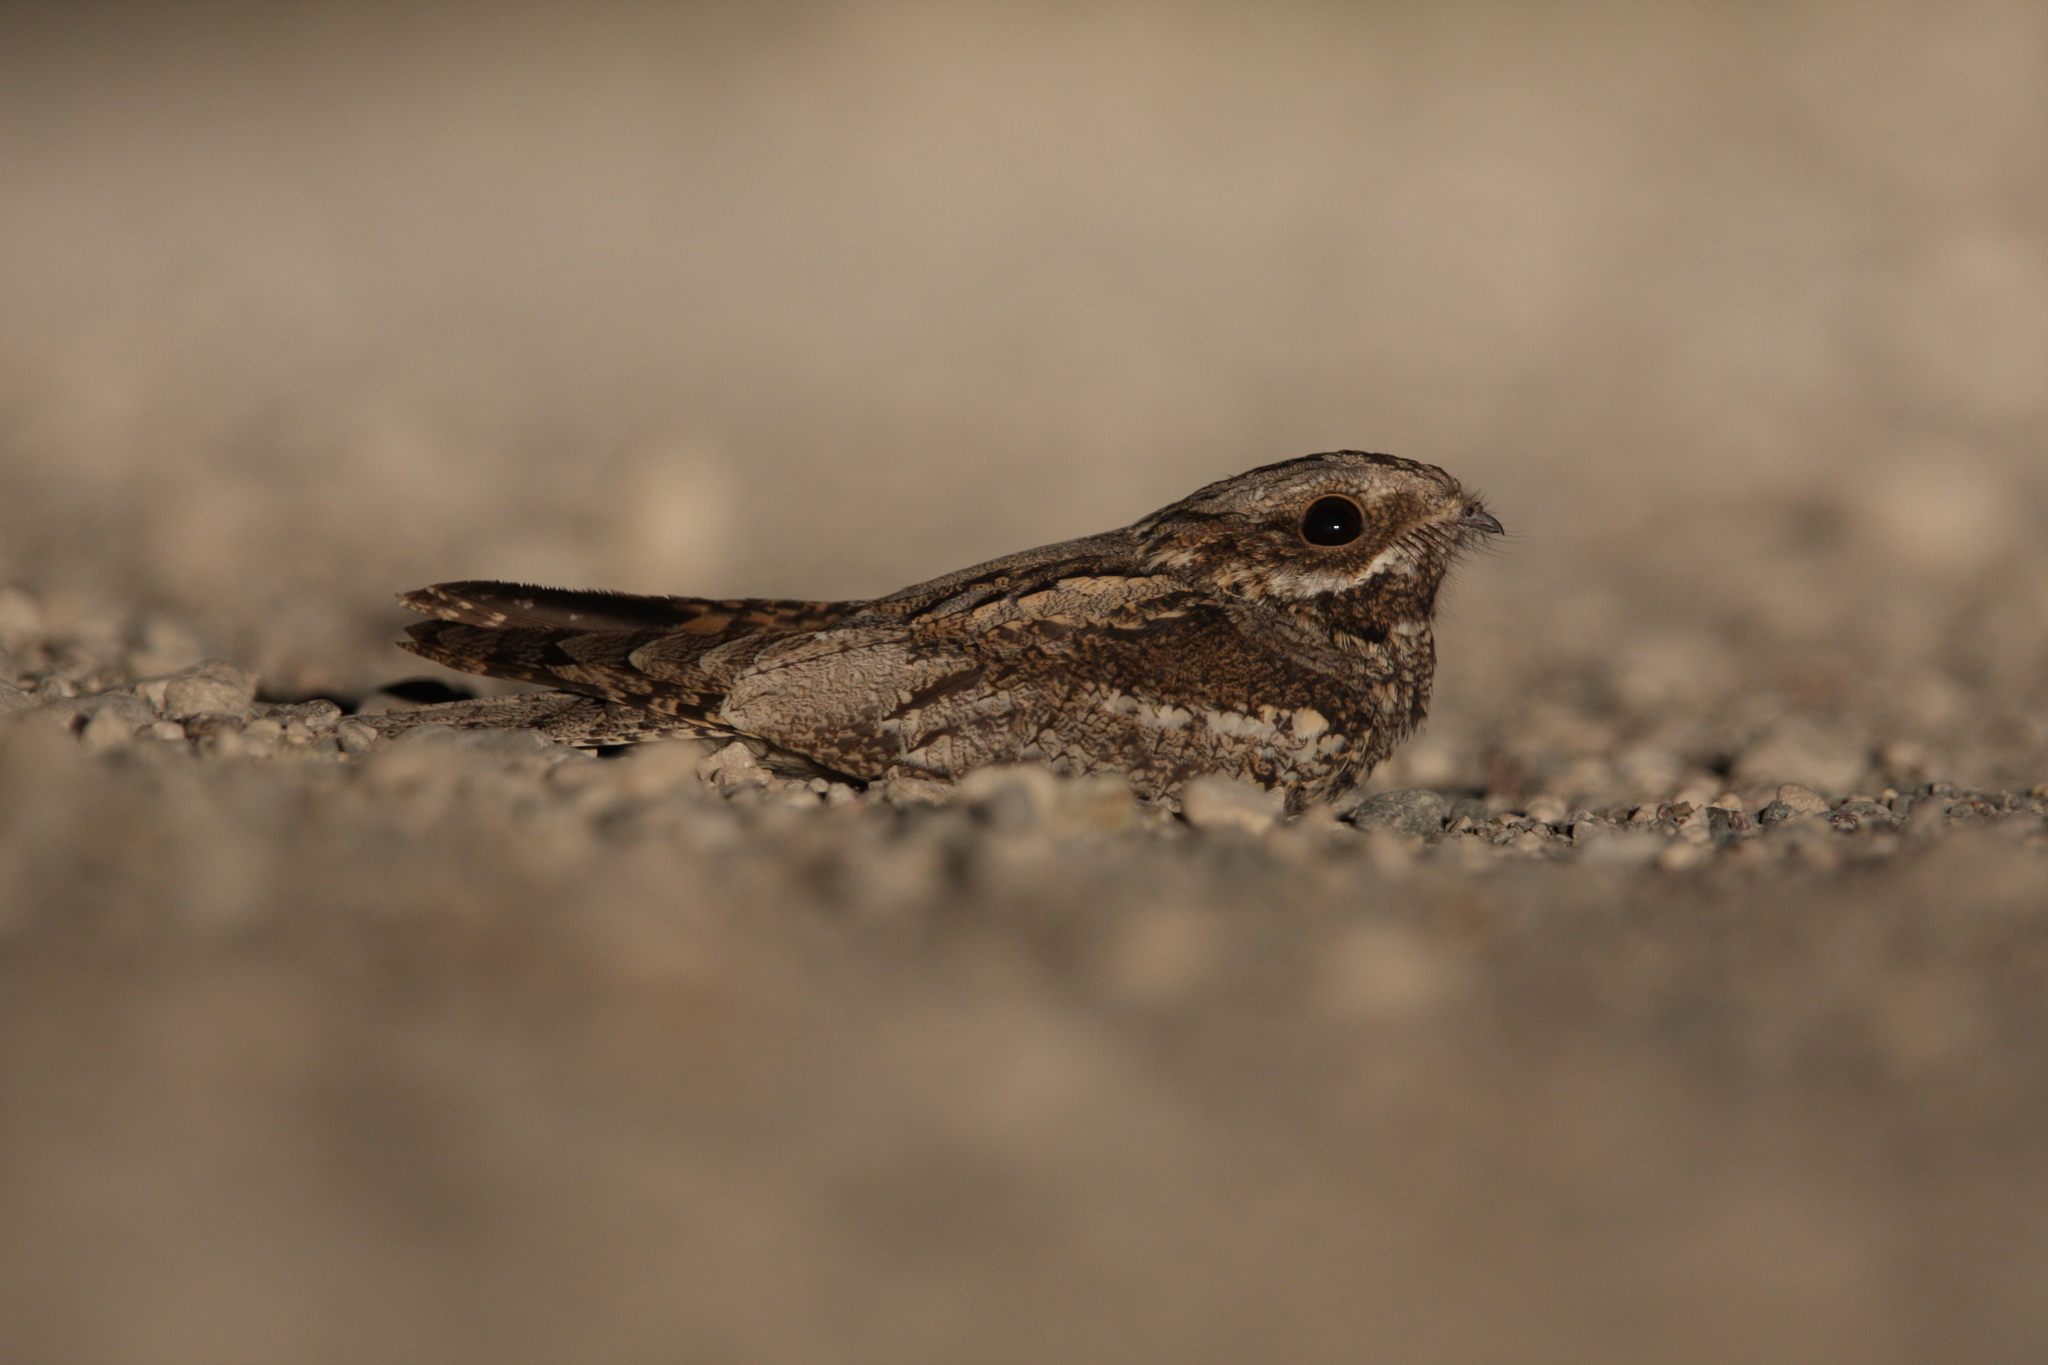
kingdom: Animalia
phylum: Chordata
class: Aves
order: Caprimulgiformes
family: Caprimulgidae
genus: Caprimulgus
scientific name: Caprimulgus europaeus
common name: European nightjar
